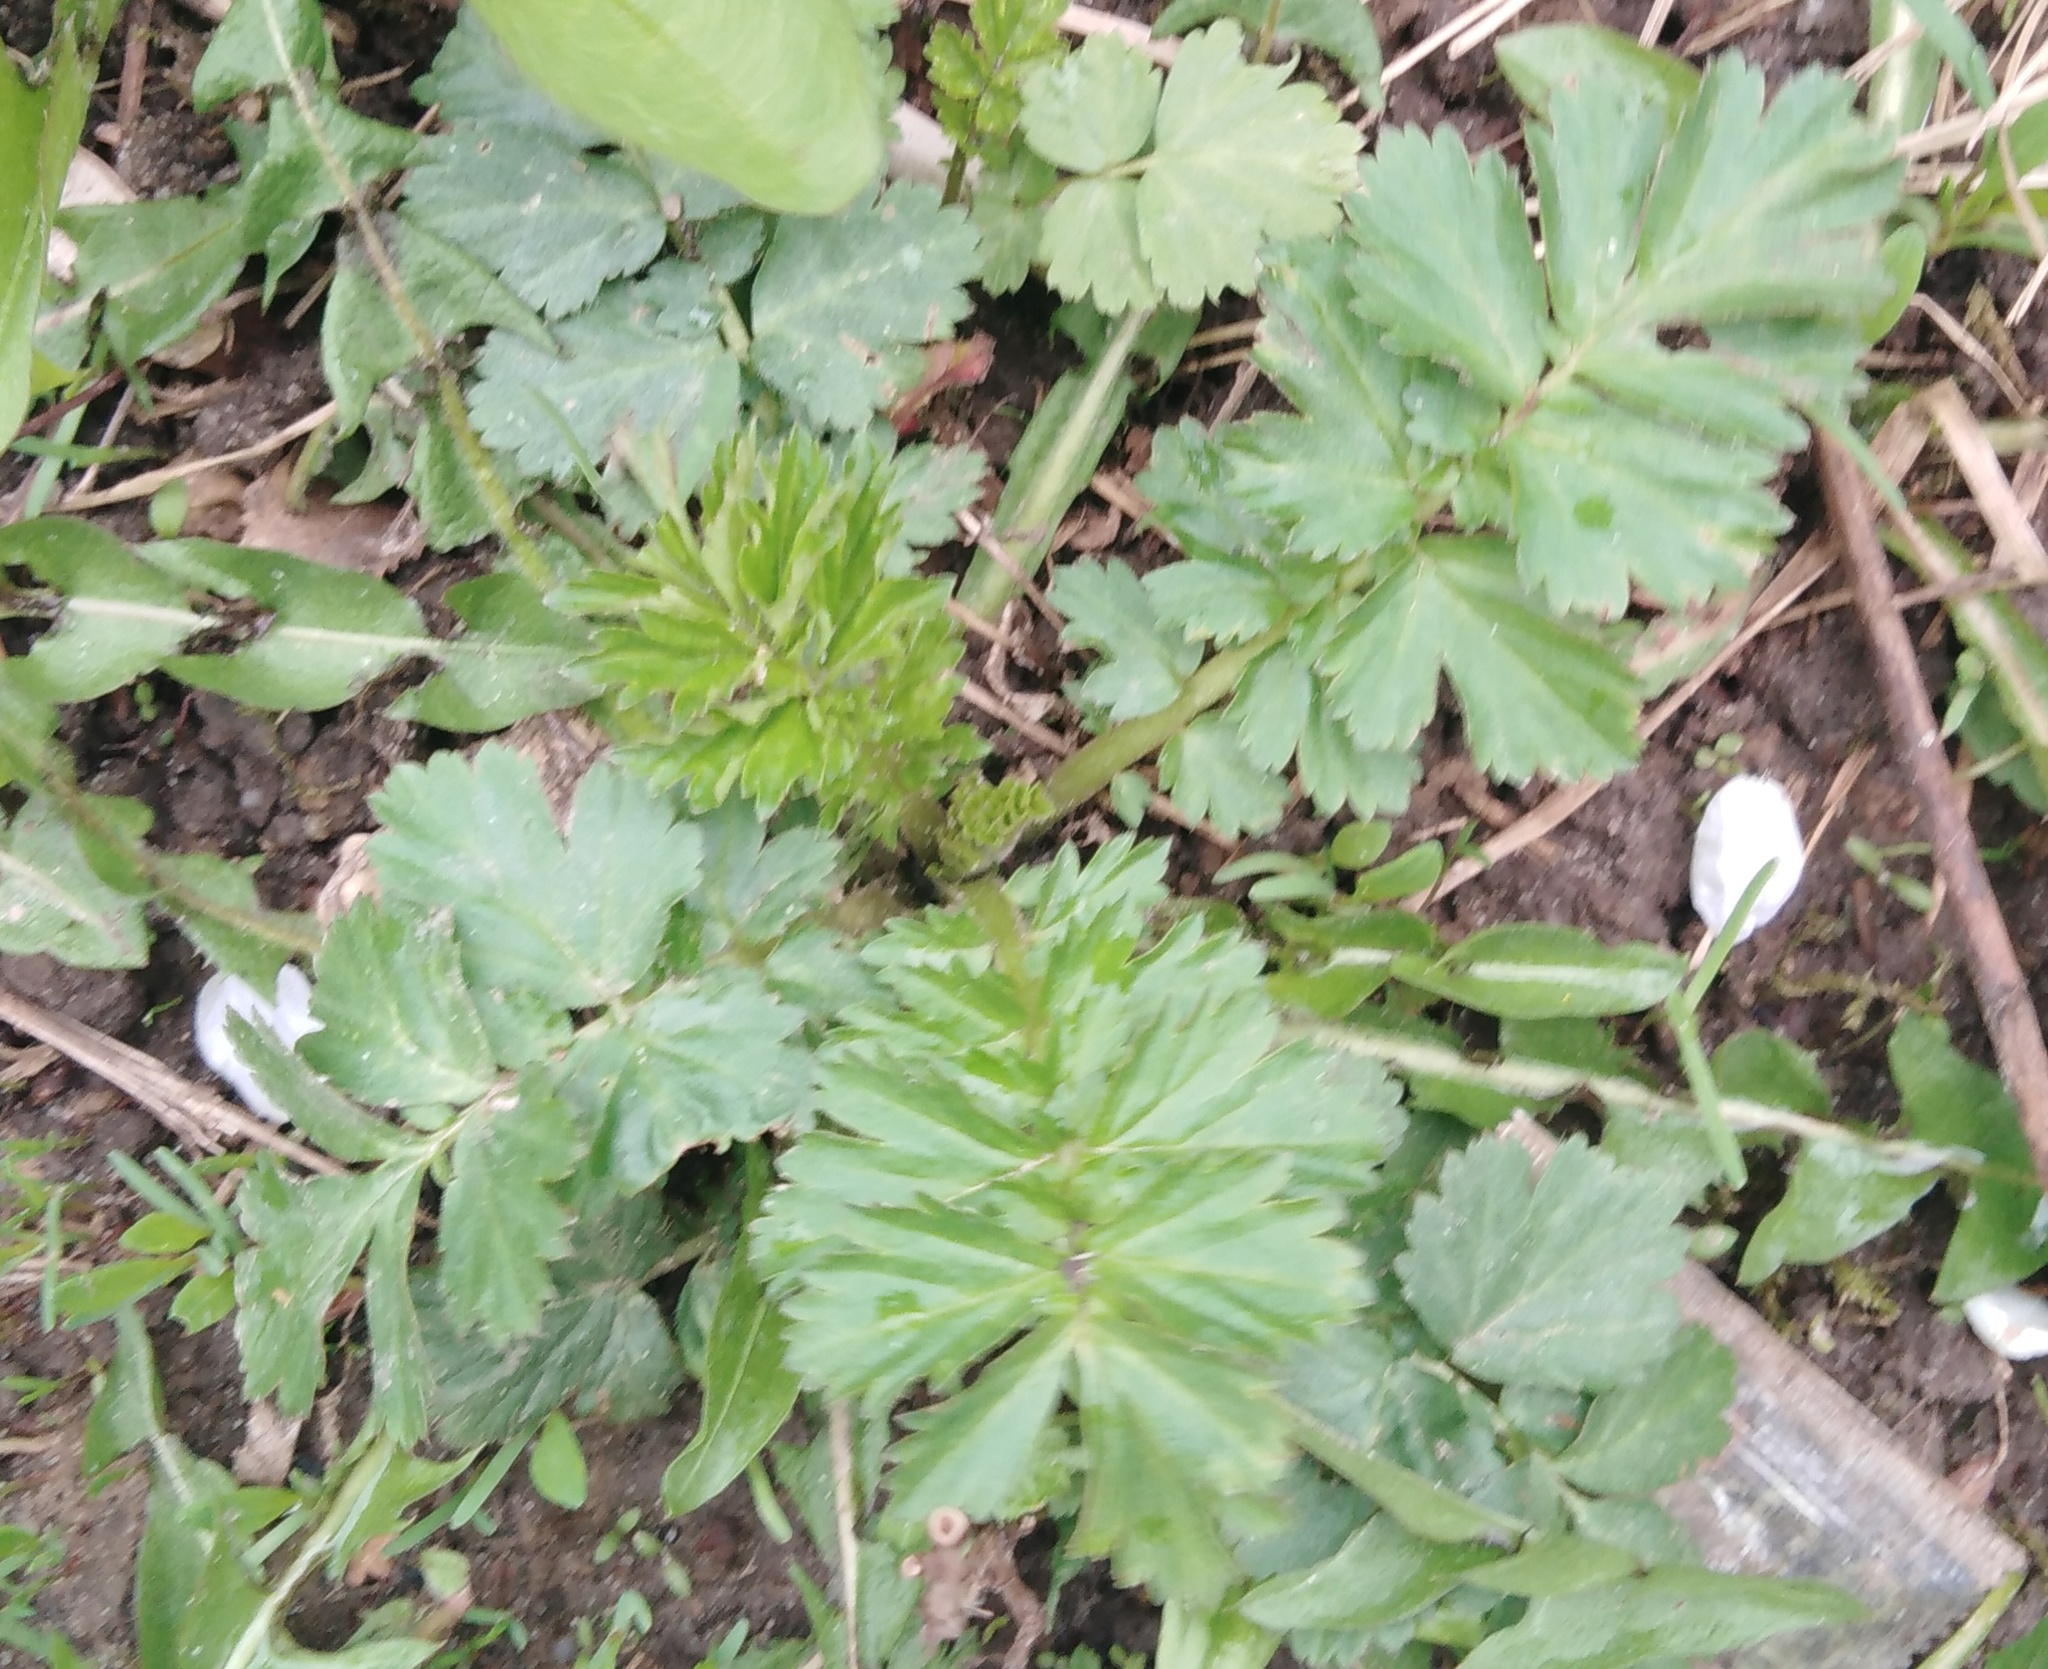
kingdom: Plantae
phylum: Tracheophyta
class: Magnoliopsida
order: Apiales
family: Apiaceae
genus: Pastinaca
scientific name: Pastinaca sativa
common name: Wild parsnip
